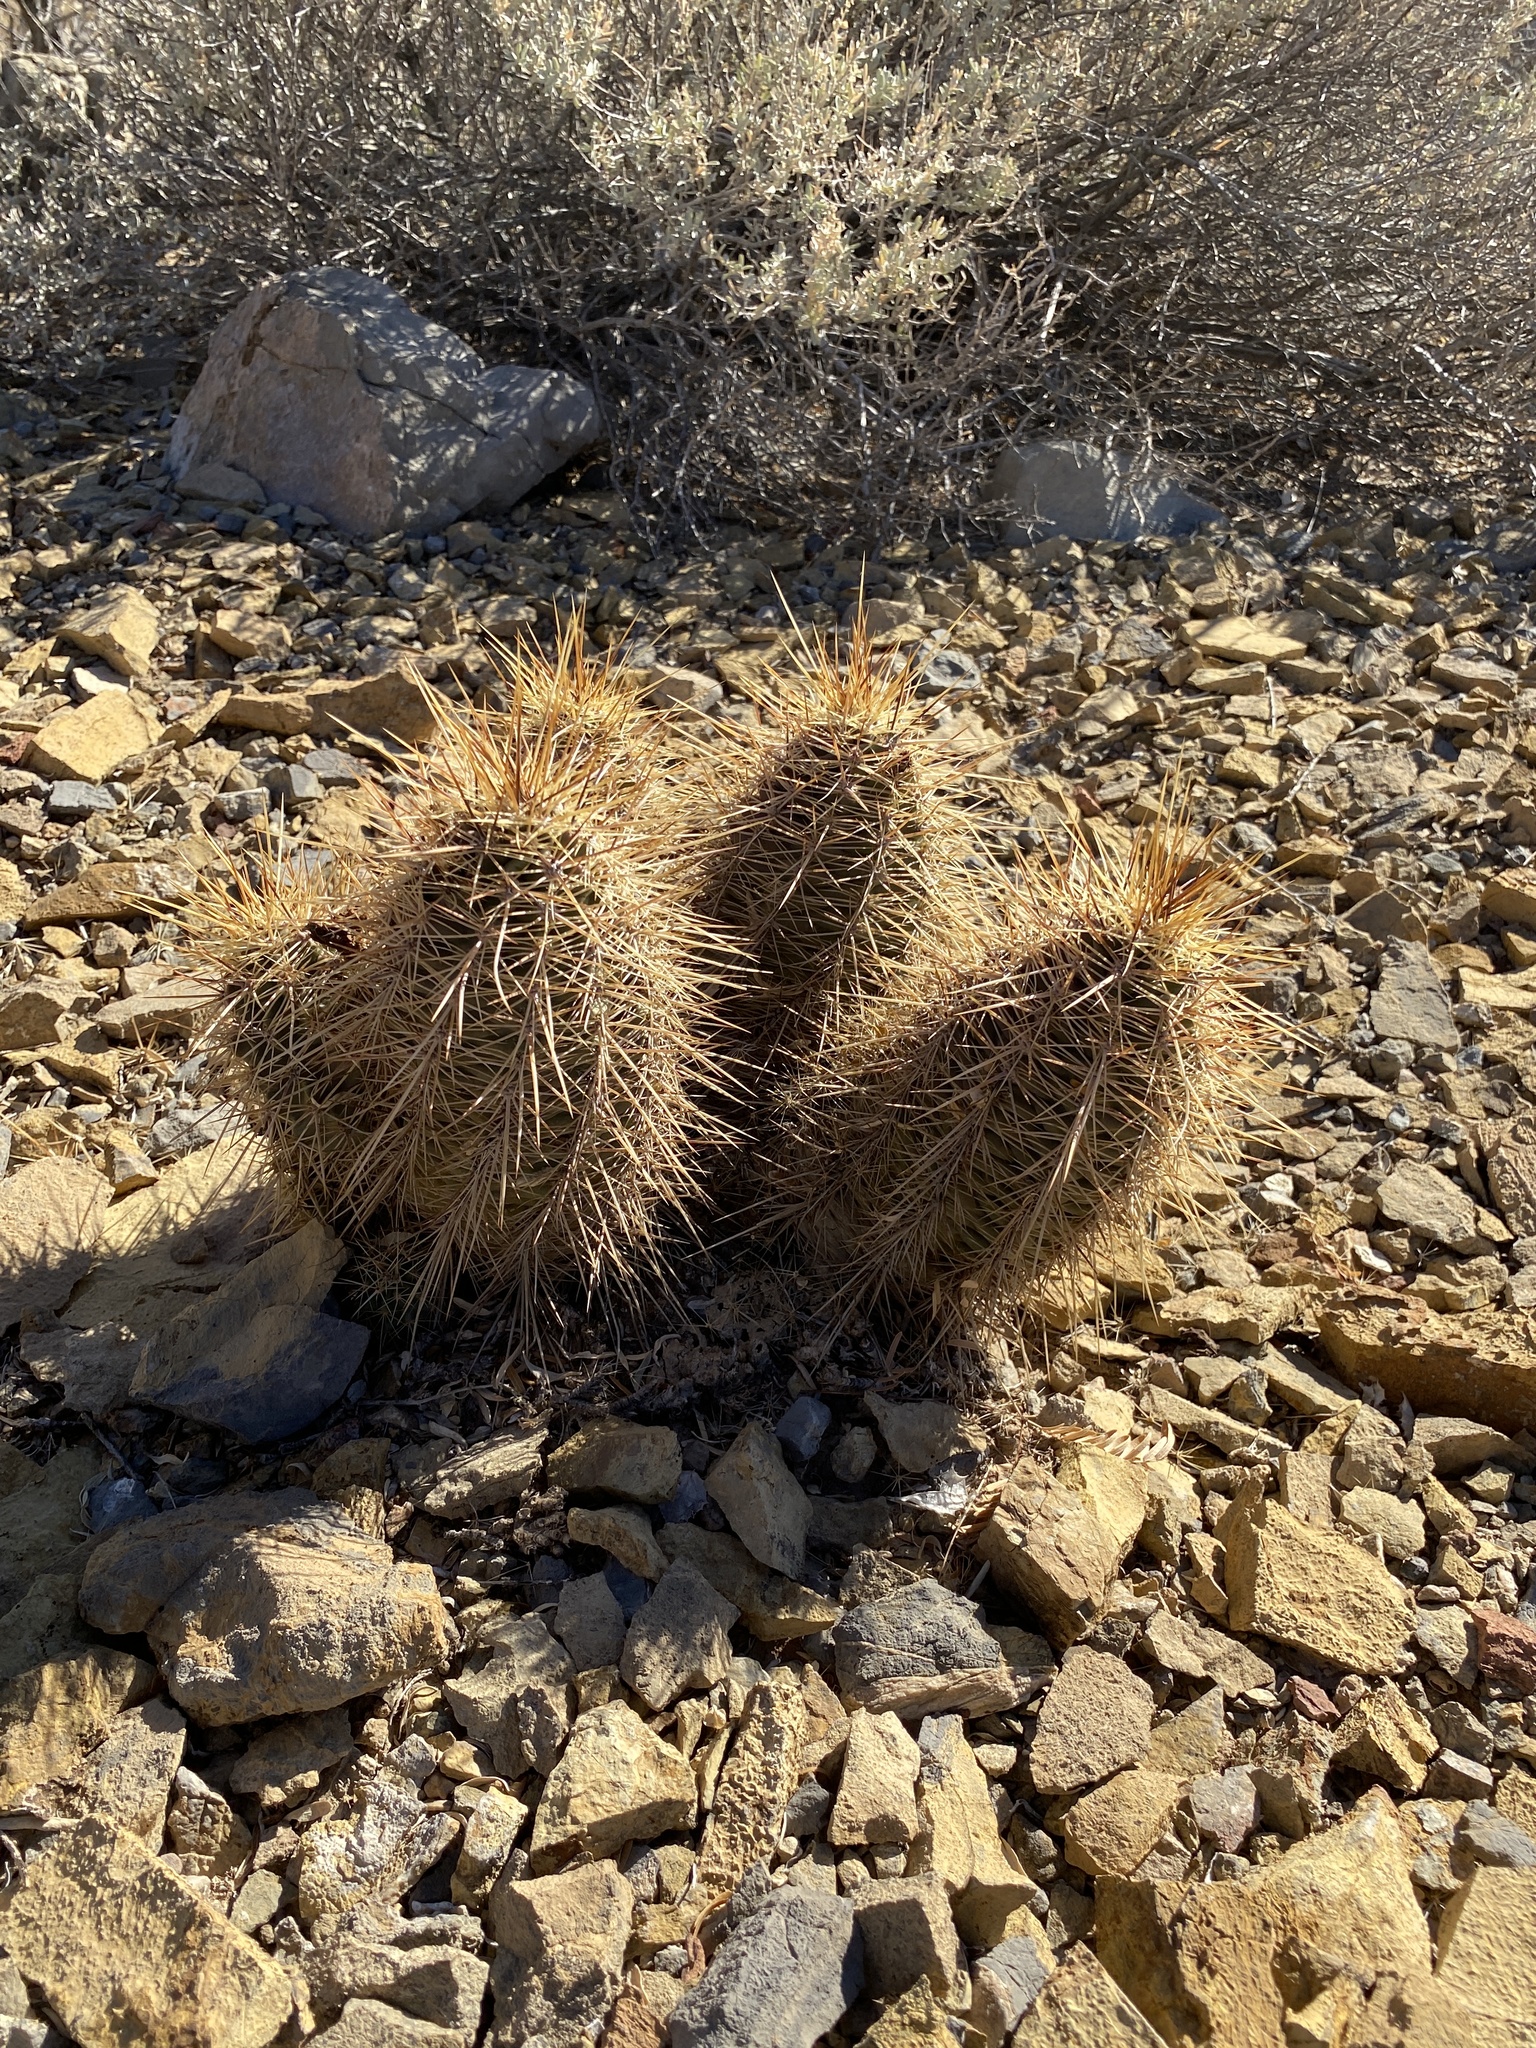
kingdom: Plantae
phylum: Tracheophyta
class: Magnoliopsida
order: Caryophyllales
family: Cactaceae
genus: Echinocereus
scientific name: Echinocereus coccineus
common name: Scarlet hedgehog cactus
